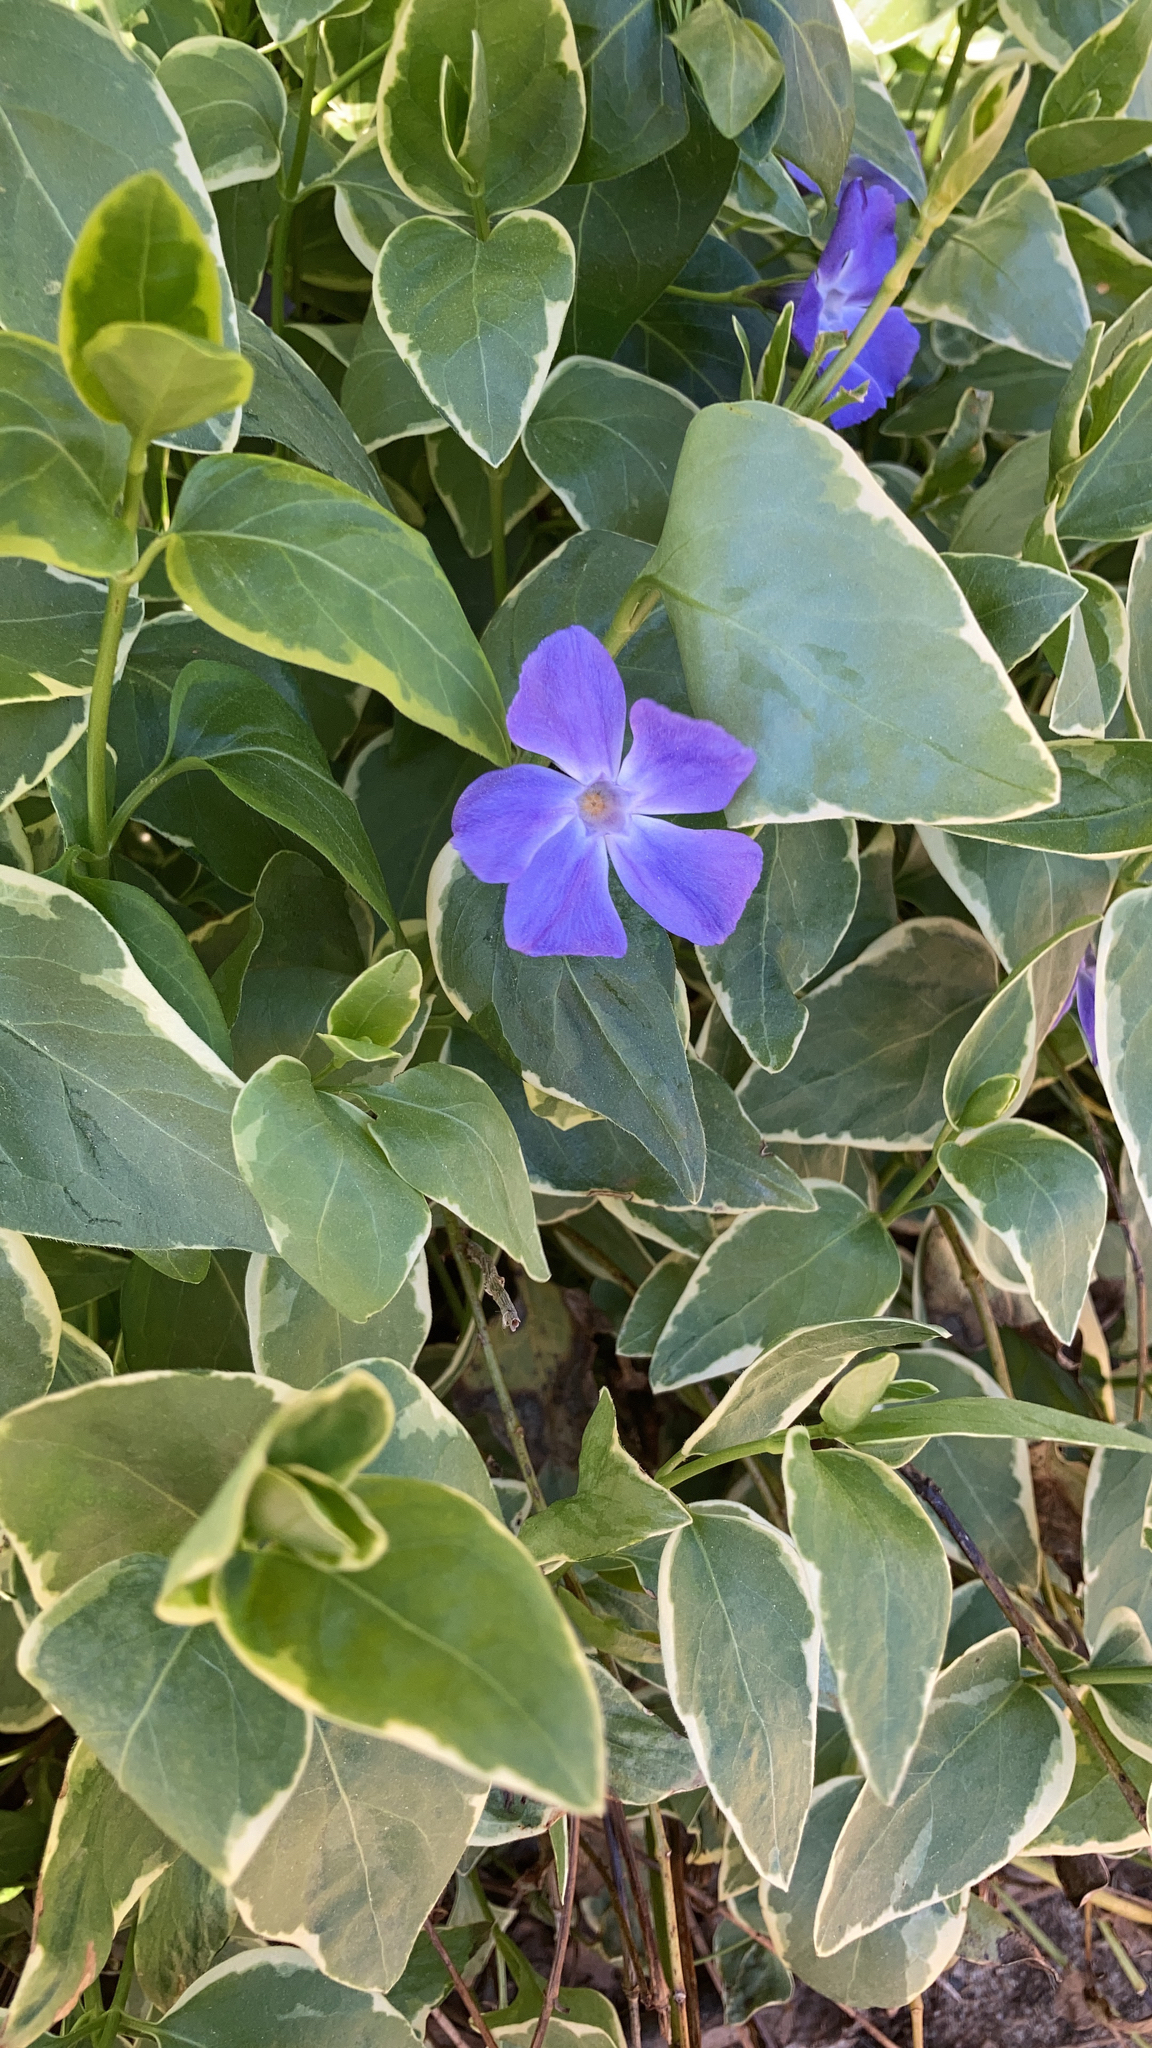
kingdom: Plantae
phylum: Tracheophyta
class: Magnoliopsida
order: Gentianales
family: Apocynaceae
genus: Vinca
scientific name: Vinca major
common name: Greater periwinkle
